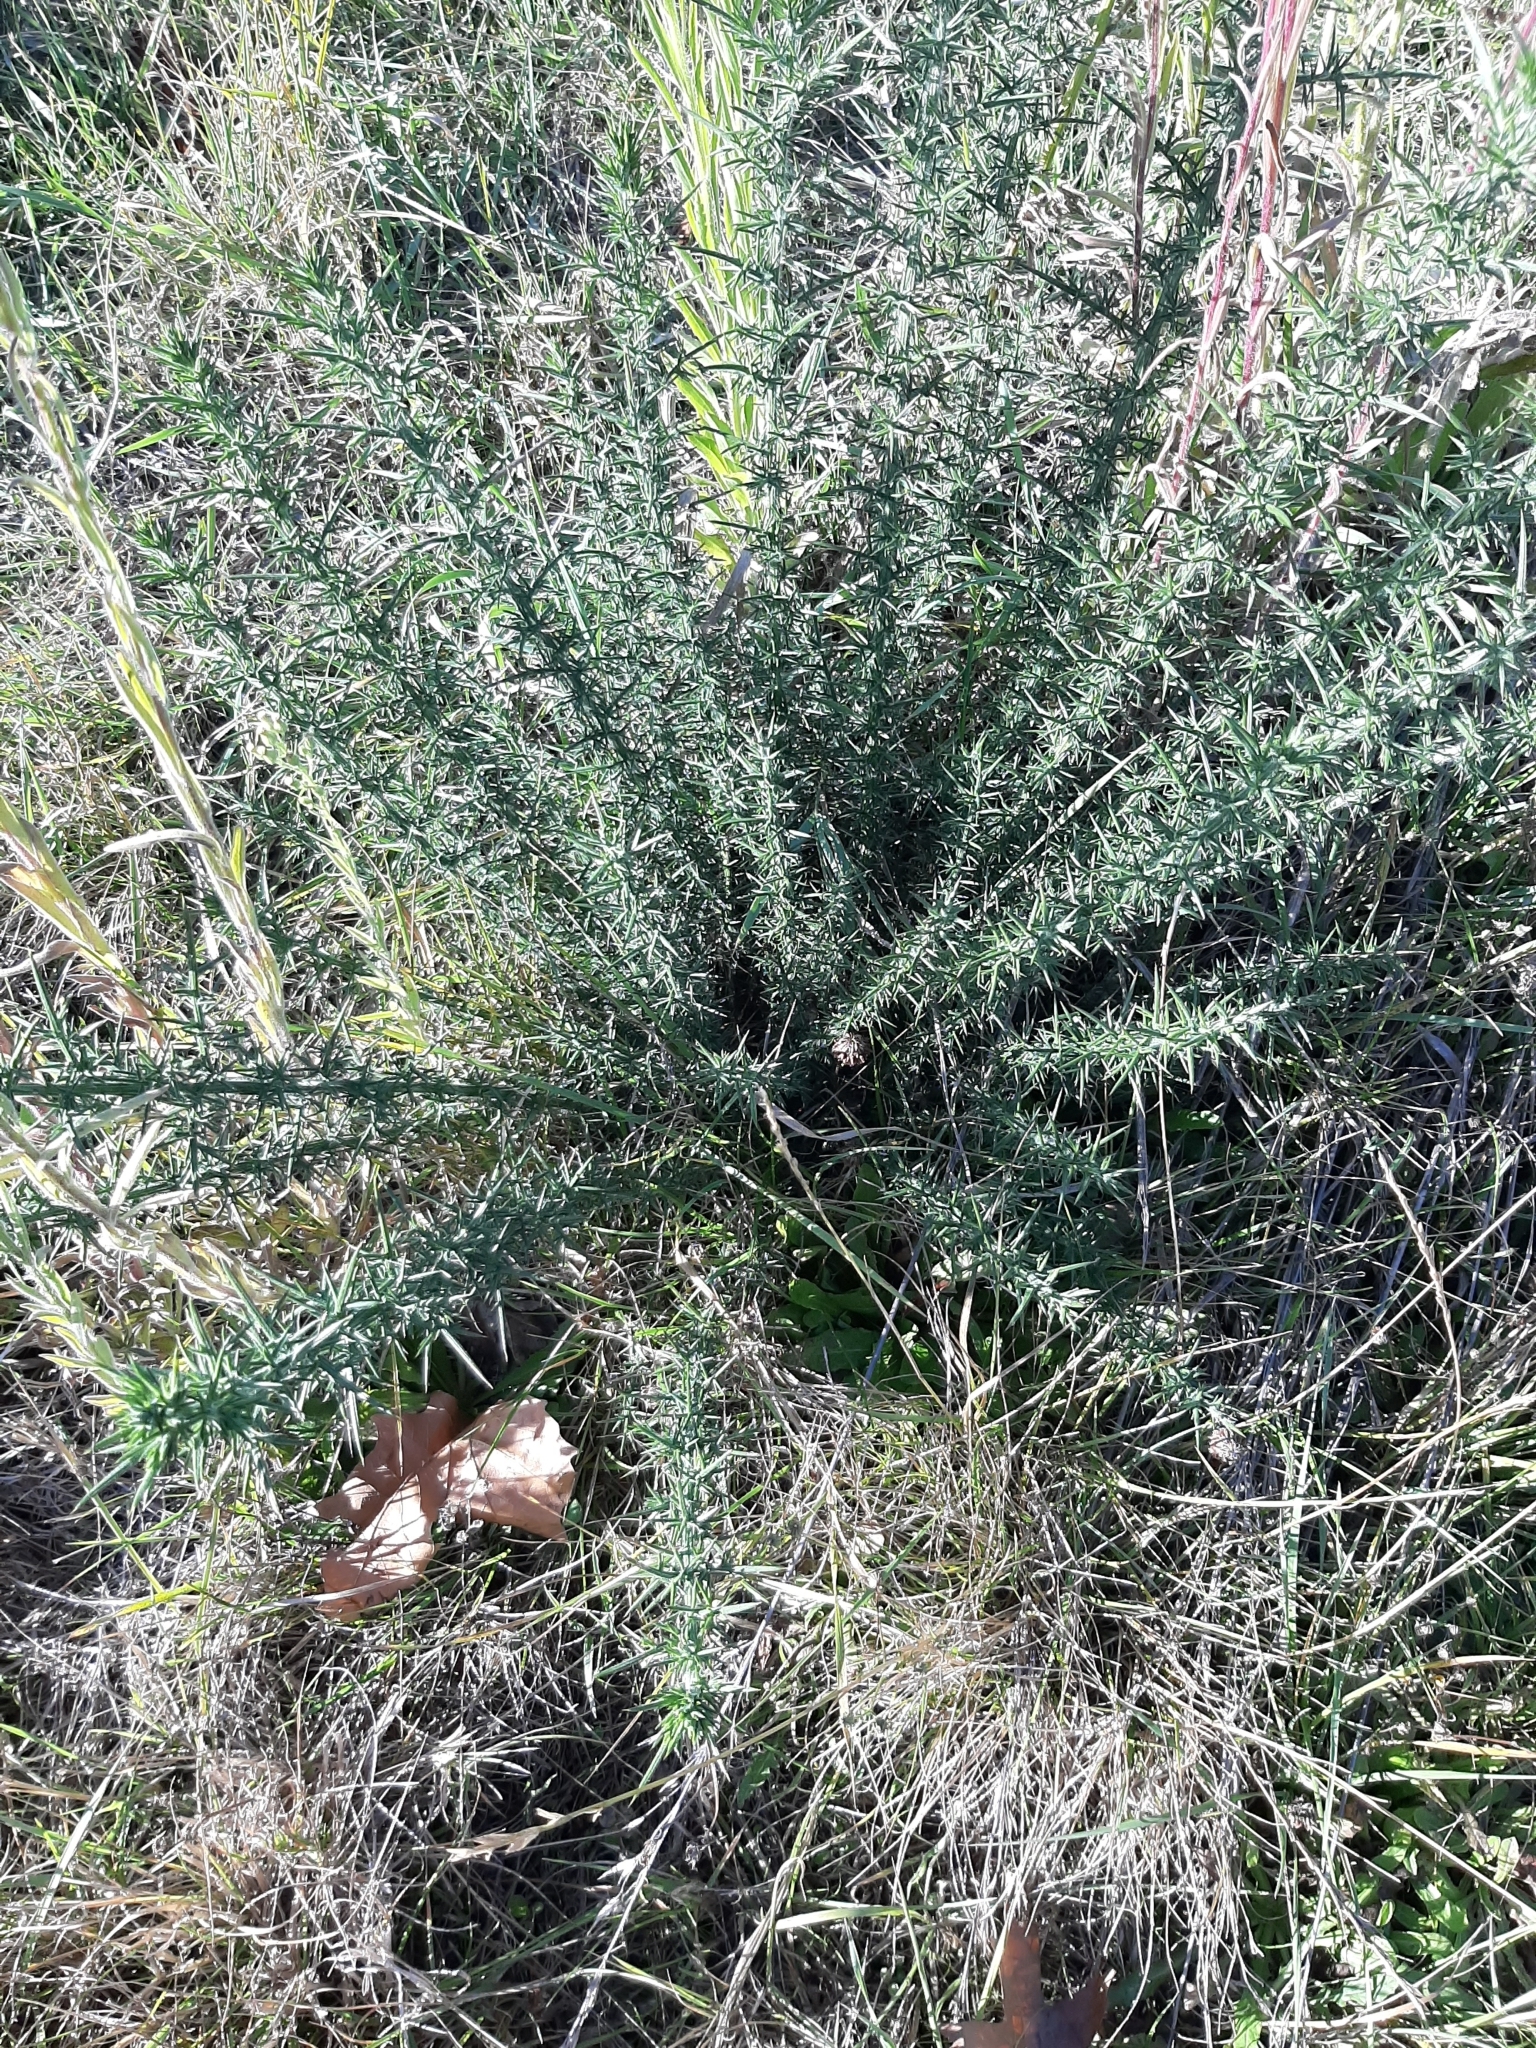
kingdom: Plantae
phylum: Tracheophyta
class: Magnoliopsida
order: Fabales
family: Fabaceae
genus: Ulex
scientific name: Ulex europaeus
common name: Common gorse
